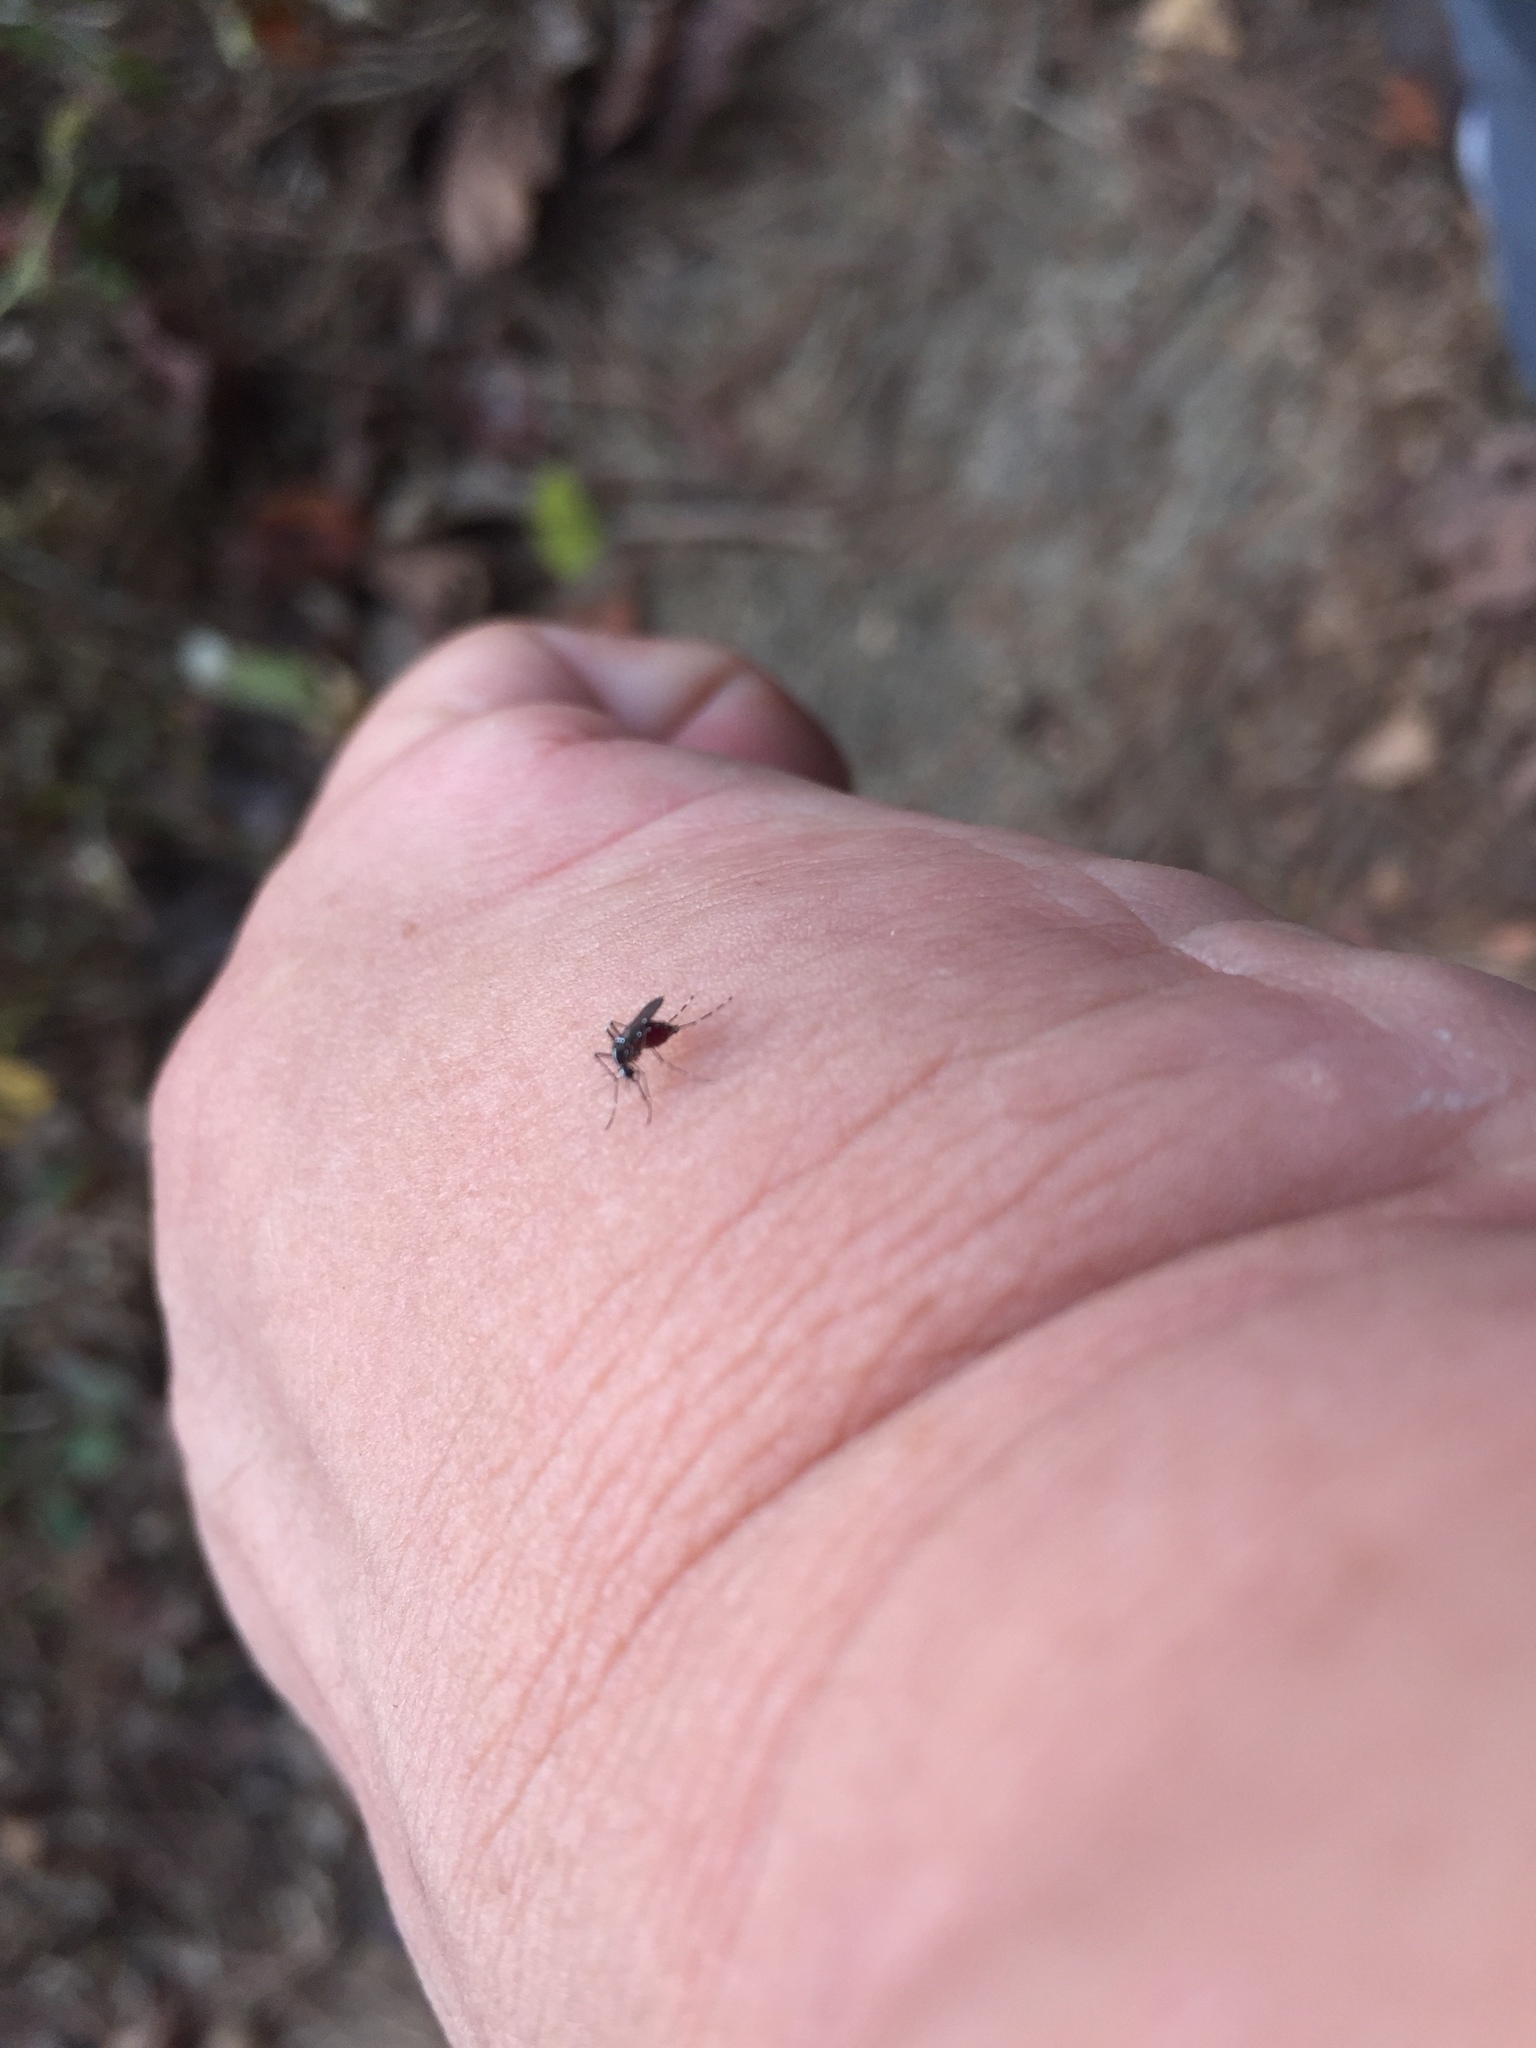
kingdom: Animalia
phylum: Arthropoda
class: Insecta
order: Diptera
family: Culicidae
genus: Aedes
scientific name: Aedes albopictus
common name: Tiger mosquito
